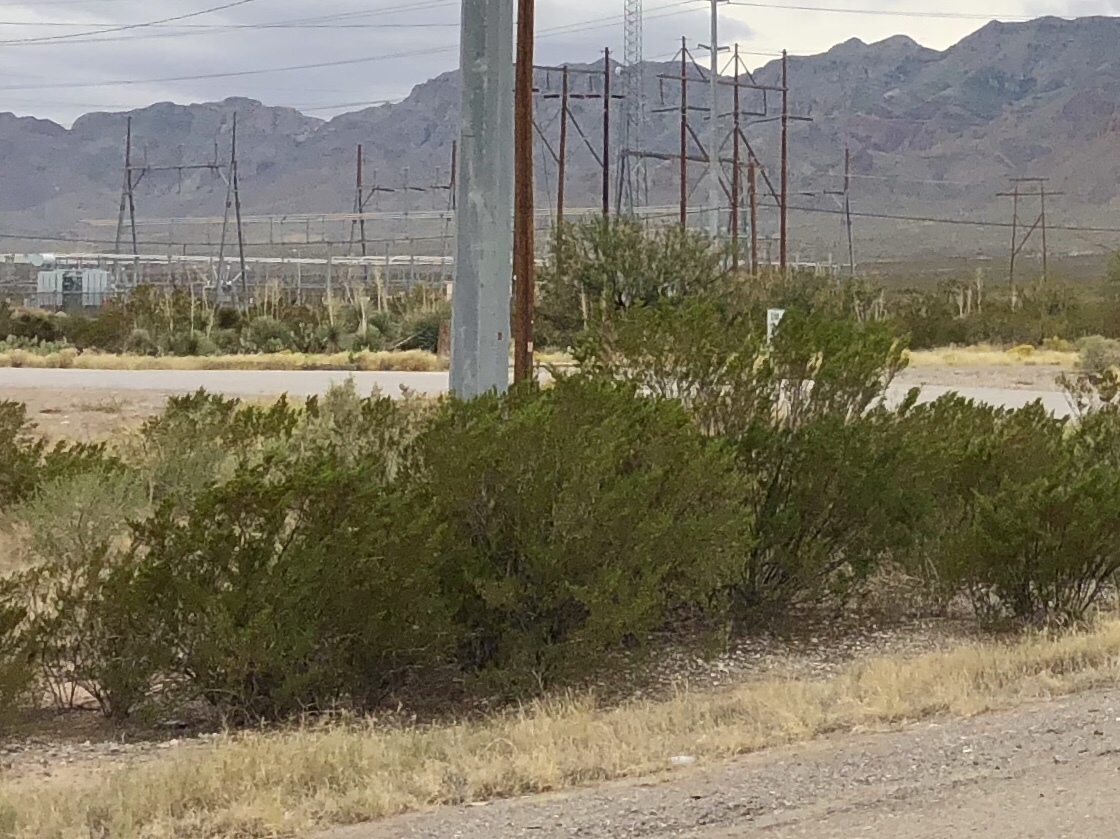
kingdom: Plantae
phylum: Tracheophyta
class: Magnoliopsida
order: Zygophyllales
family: Zygophyllaceae
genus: Larrea
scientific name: Larrea tridentata
